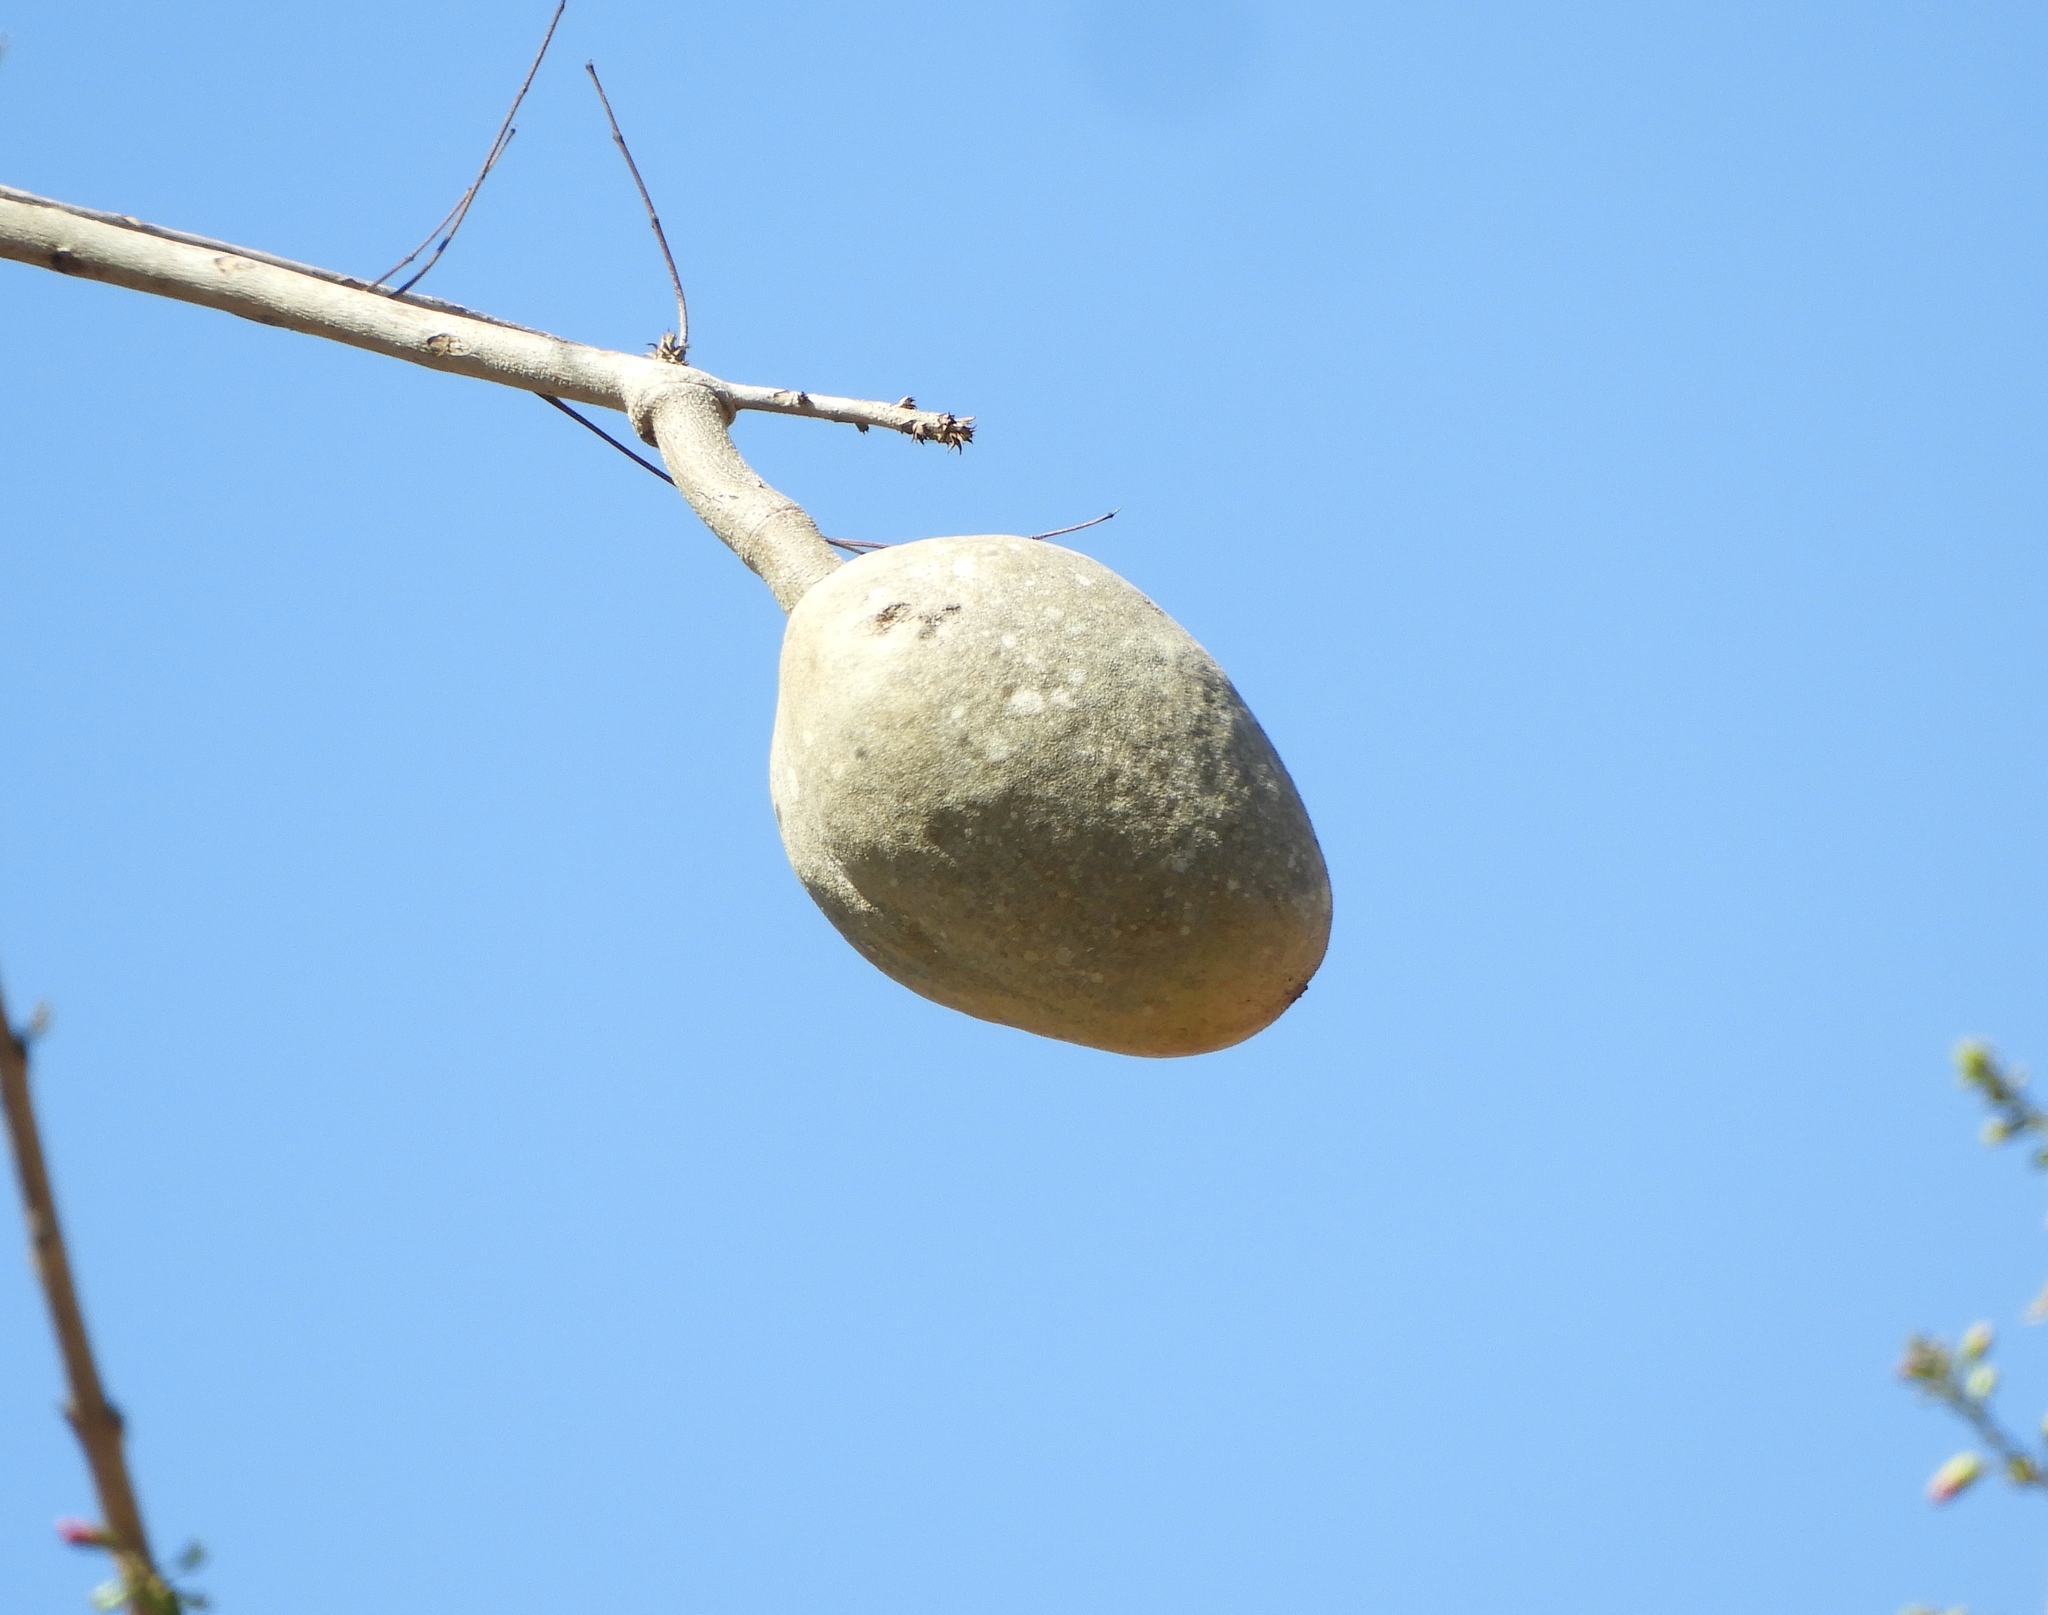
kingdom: Plantae
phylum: Tracheophyta
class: Magnoliopsida
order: Sapindales
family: Meliaceae
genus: Swietenia
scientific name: Swietenia humilis
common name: Pacific coast mahogany
